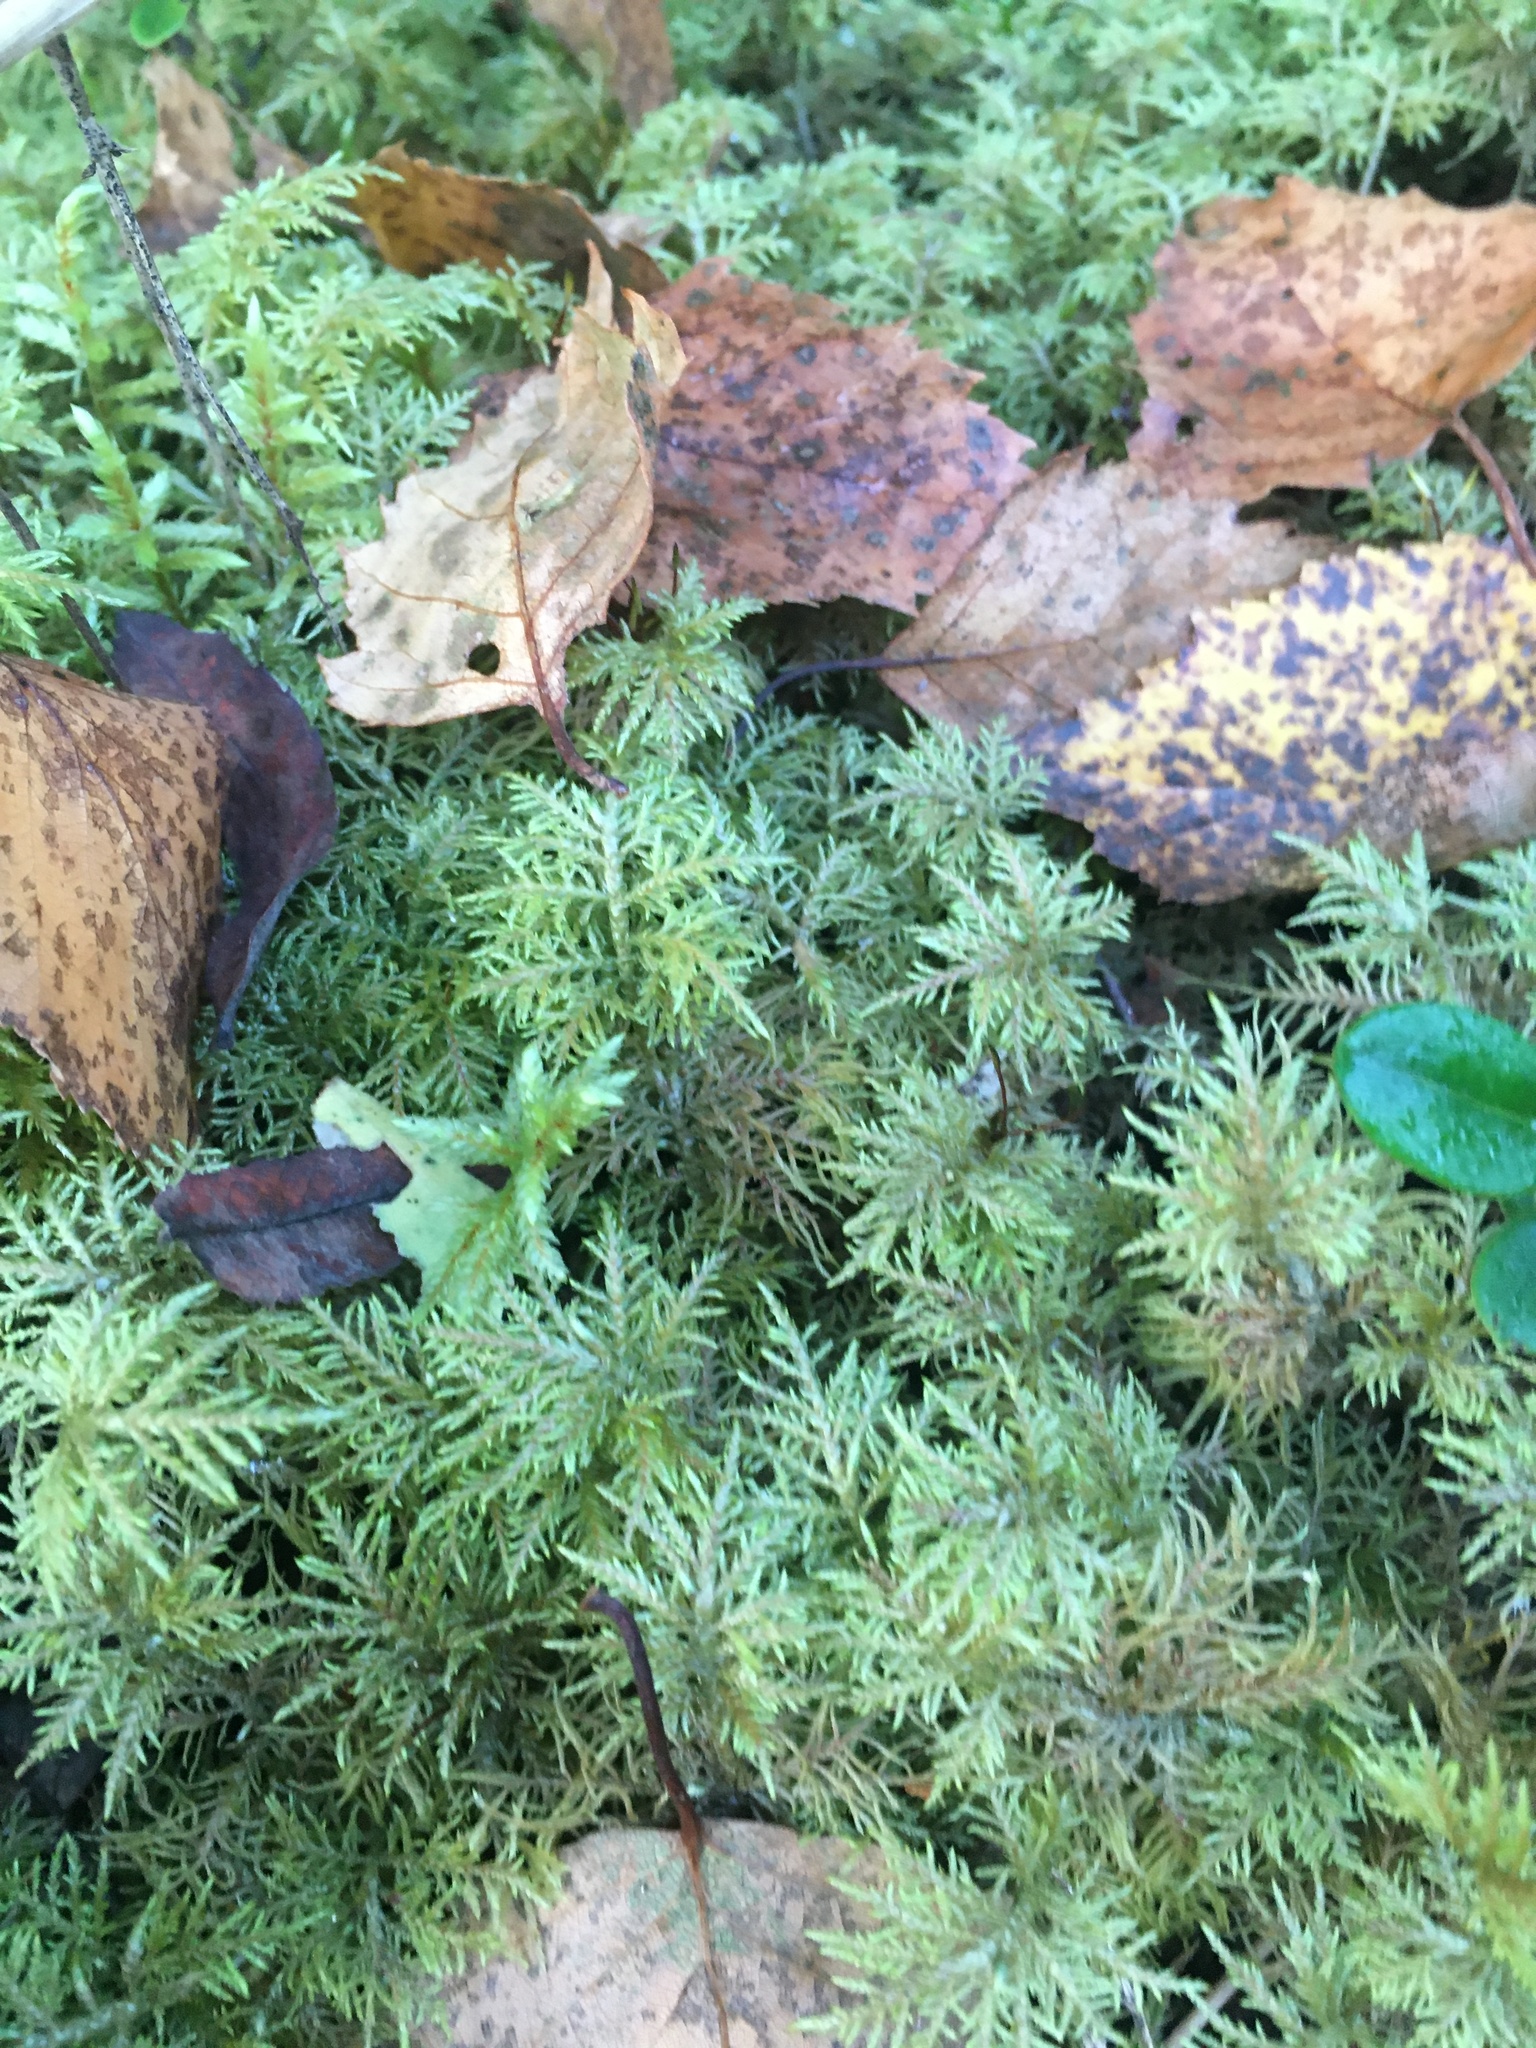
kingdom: Plantae
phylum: Bryophyta
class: Bryopsida
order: Hypnales
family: Hylocomiaceae
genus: Hylocomium
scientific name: Hylocomium splendens
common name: Stairstep moss
